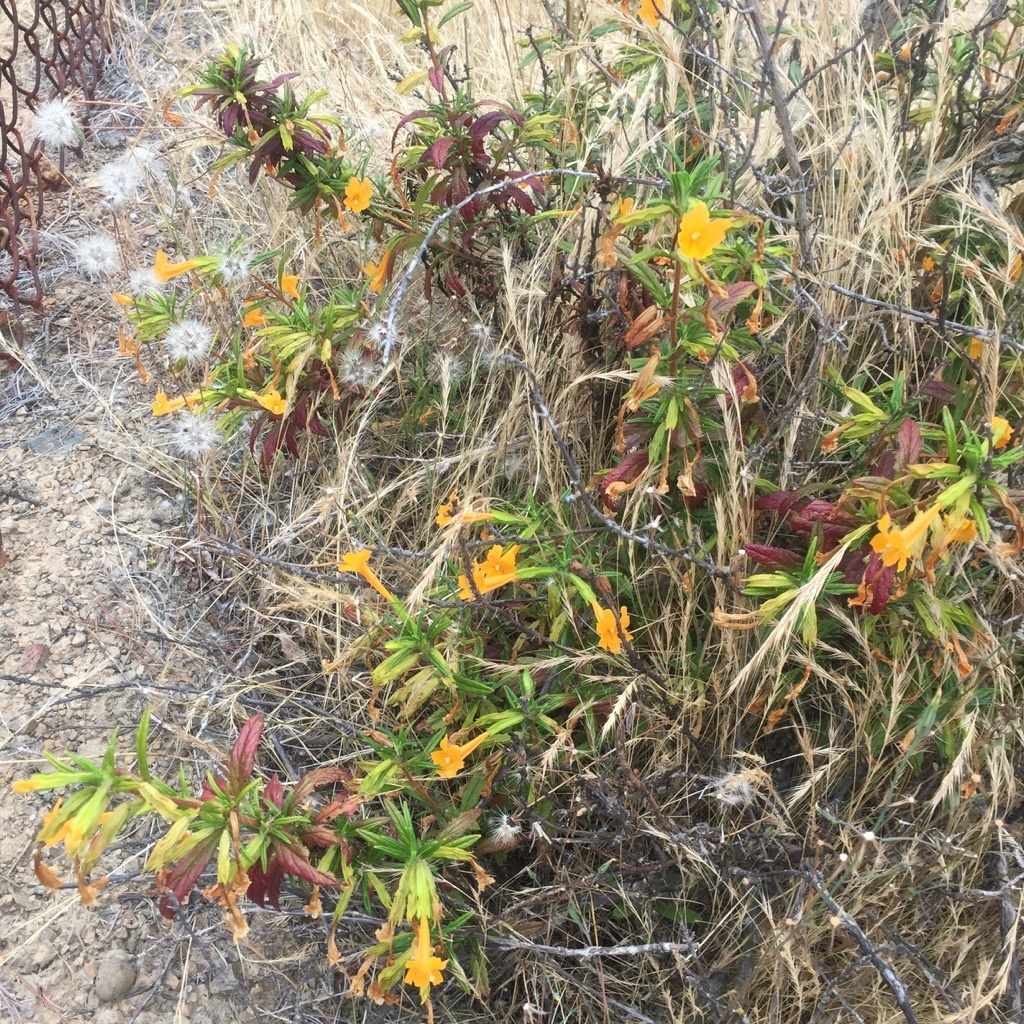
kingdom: Plantae
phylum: Tracheophyta
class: Magnoliopsida
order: Lamiales
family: Phrymaceae
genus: Diplacus
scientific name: Diplacus aurantiacus
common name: Bush monkey-flower
